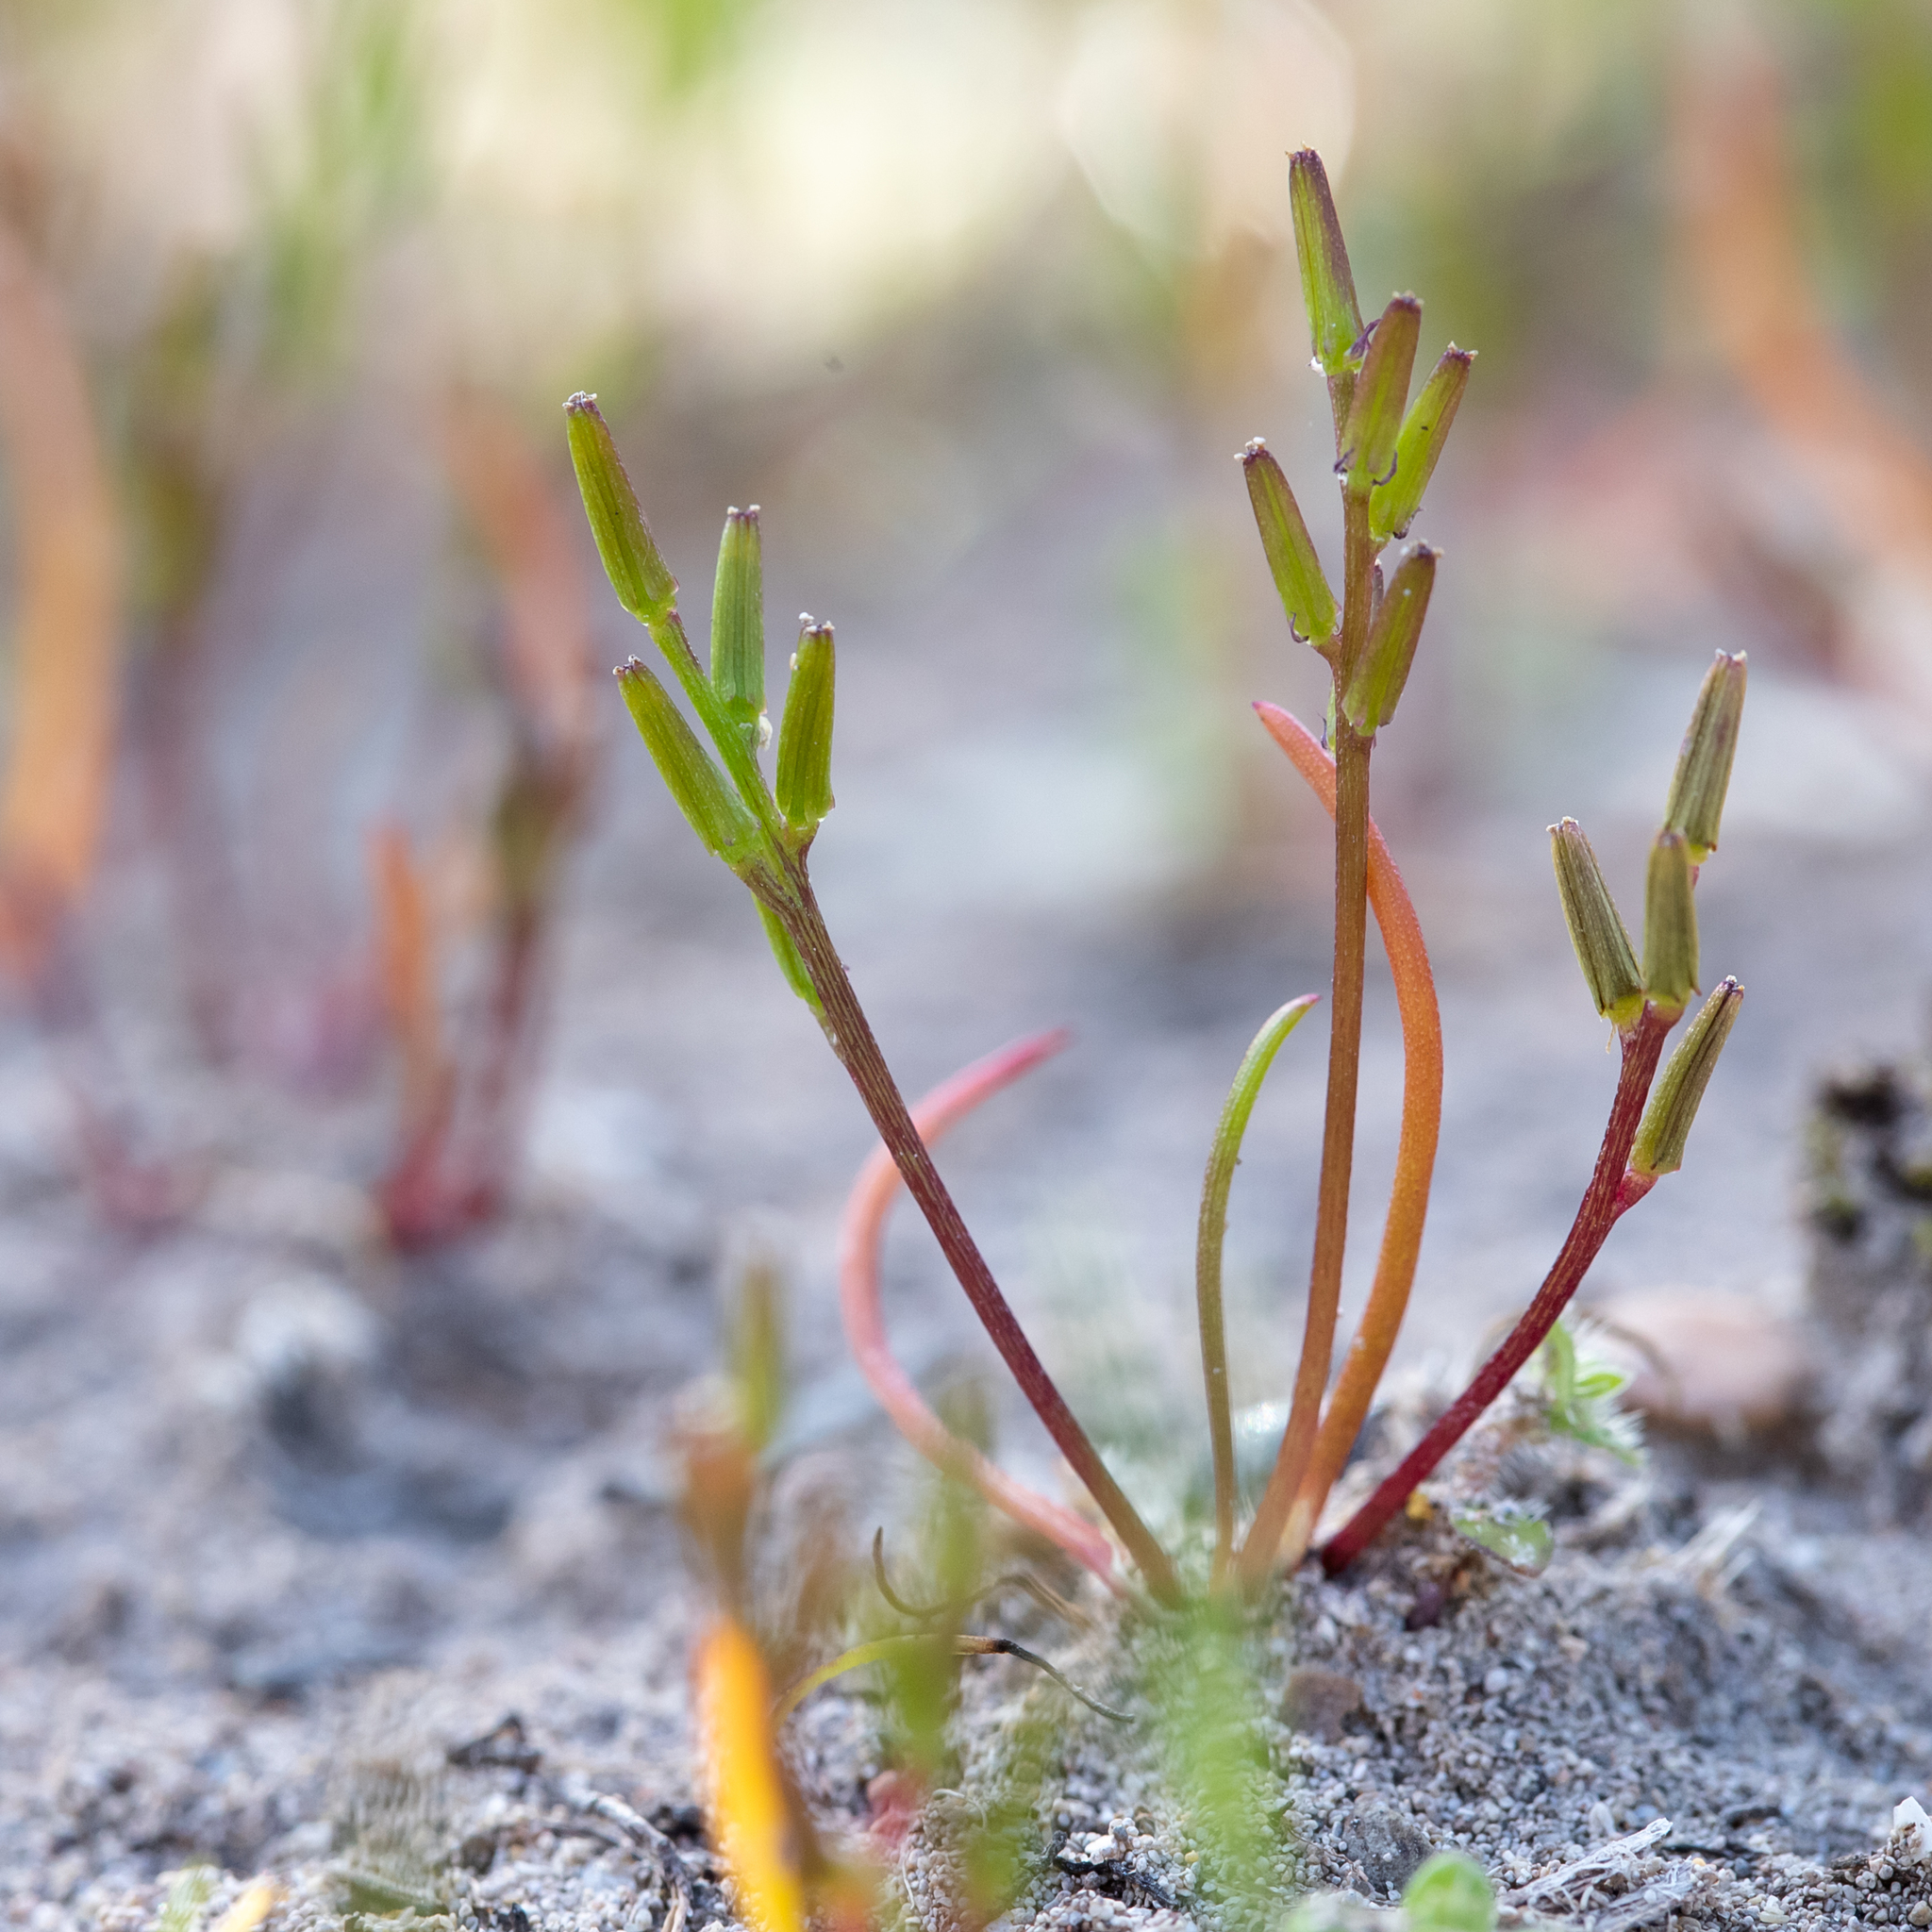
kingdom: Plantae
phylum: Tracheophyta
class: Liliopsida
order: Alismatales
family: Juncaginaceae
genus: Triglochin
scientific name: Triglochin nana
